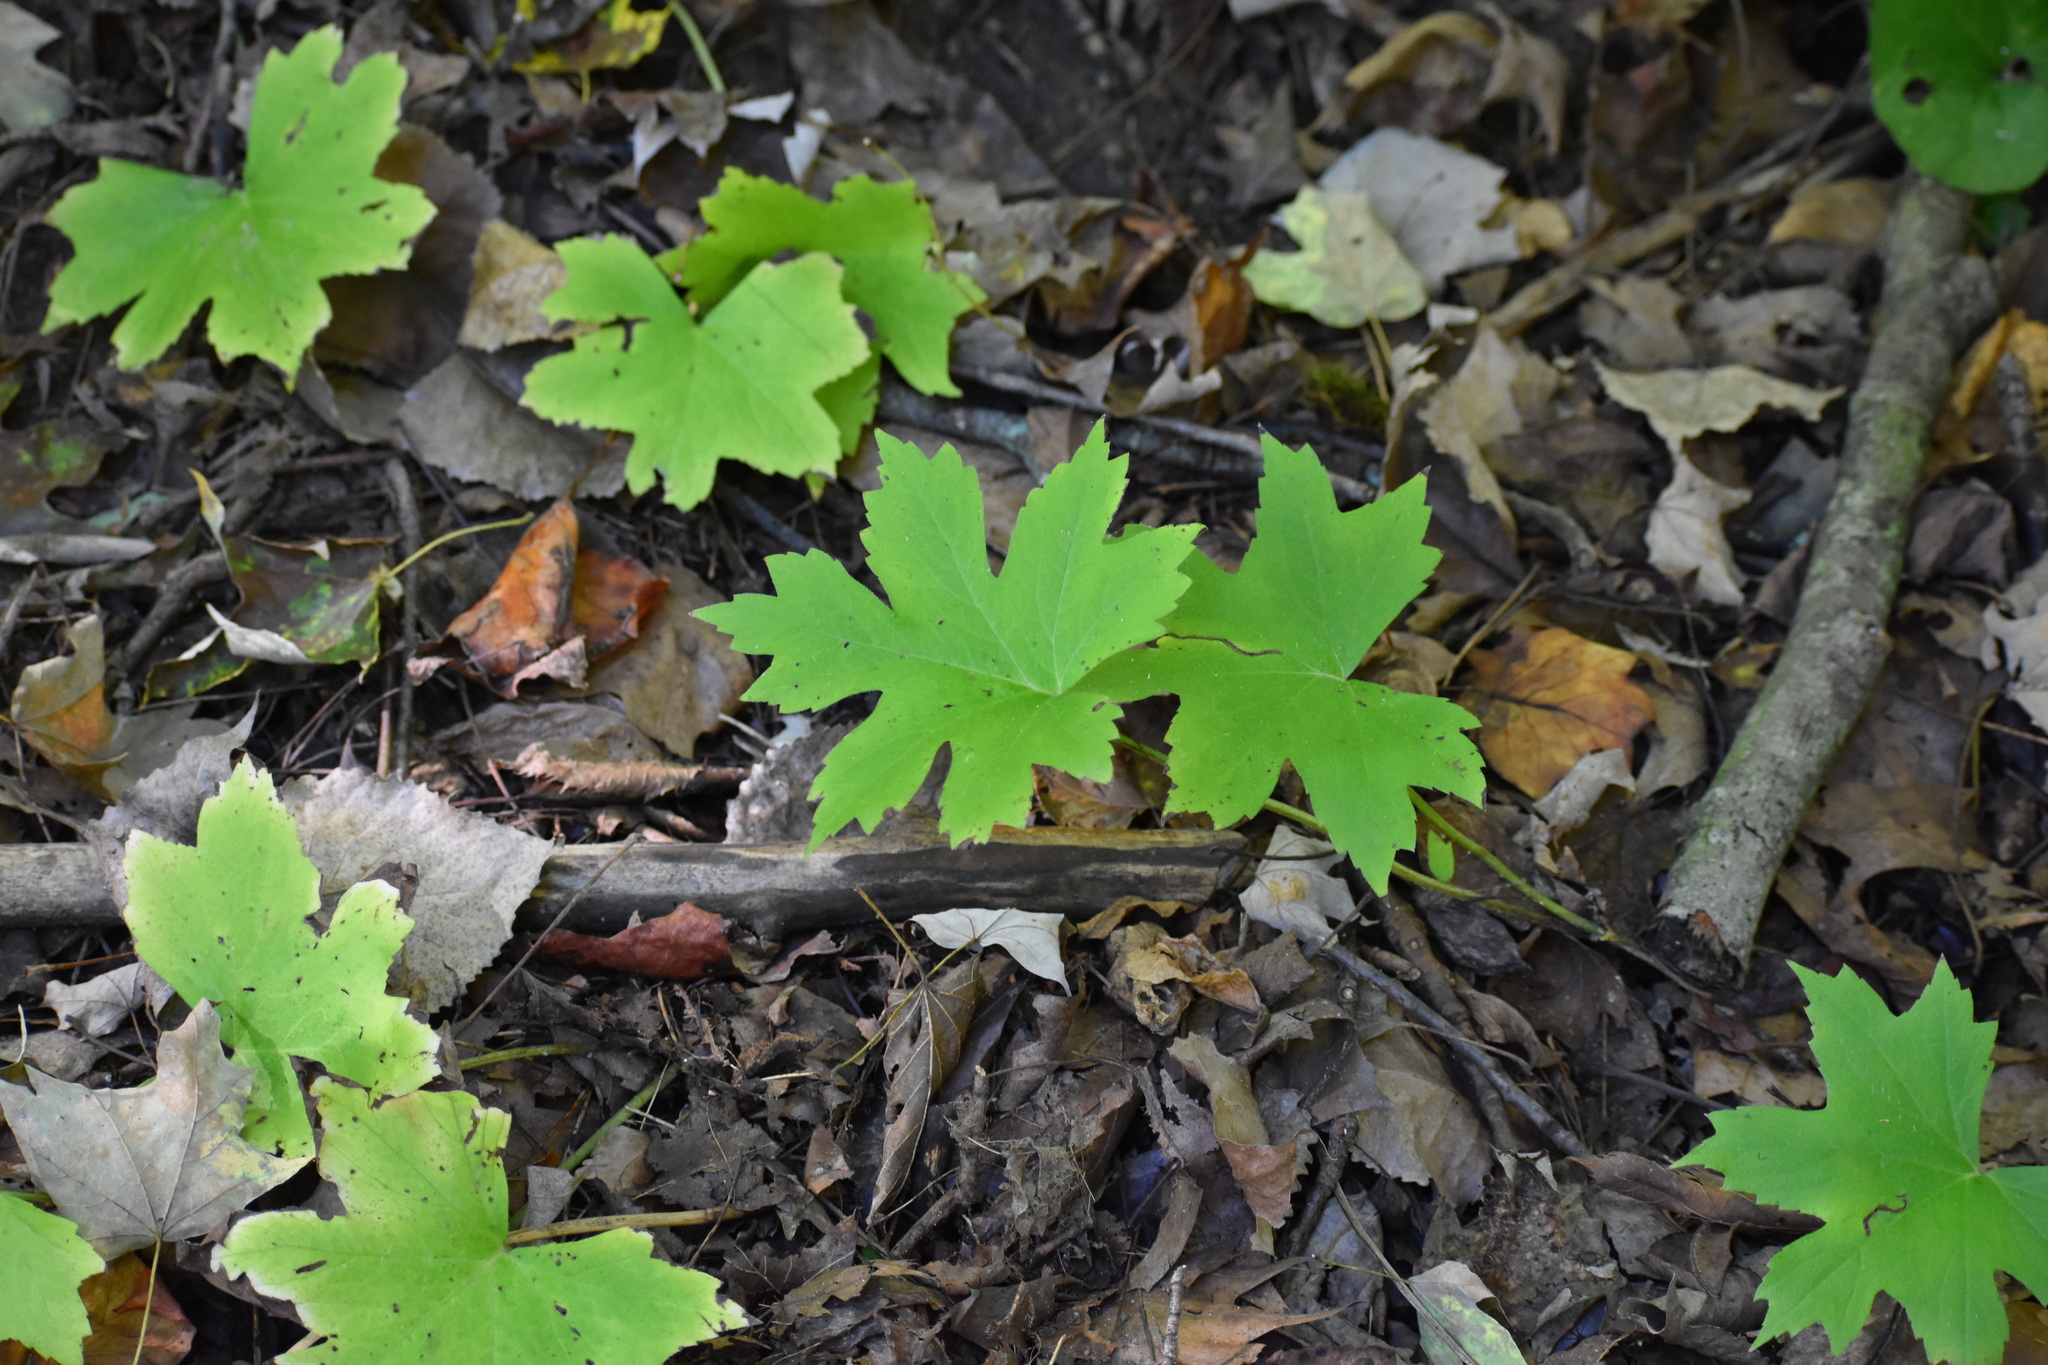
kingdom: Plantae
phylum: Tracheophyta
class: Magnoliopsida
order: Boraginales
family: Hydrophyllaceae
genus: Hydrophyllum
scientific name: Hydrophyllum canadense
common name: Canada waterleaf
